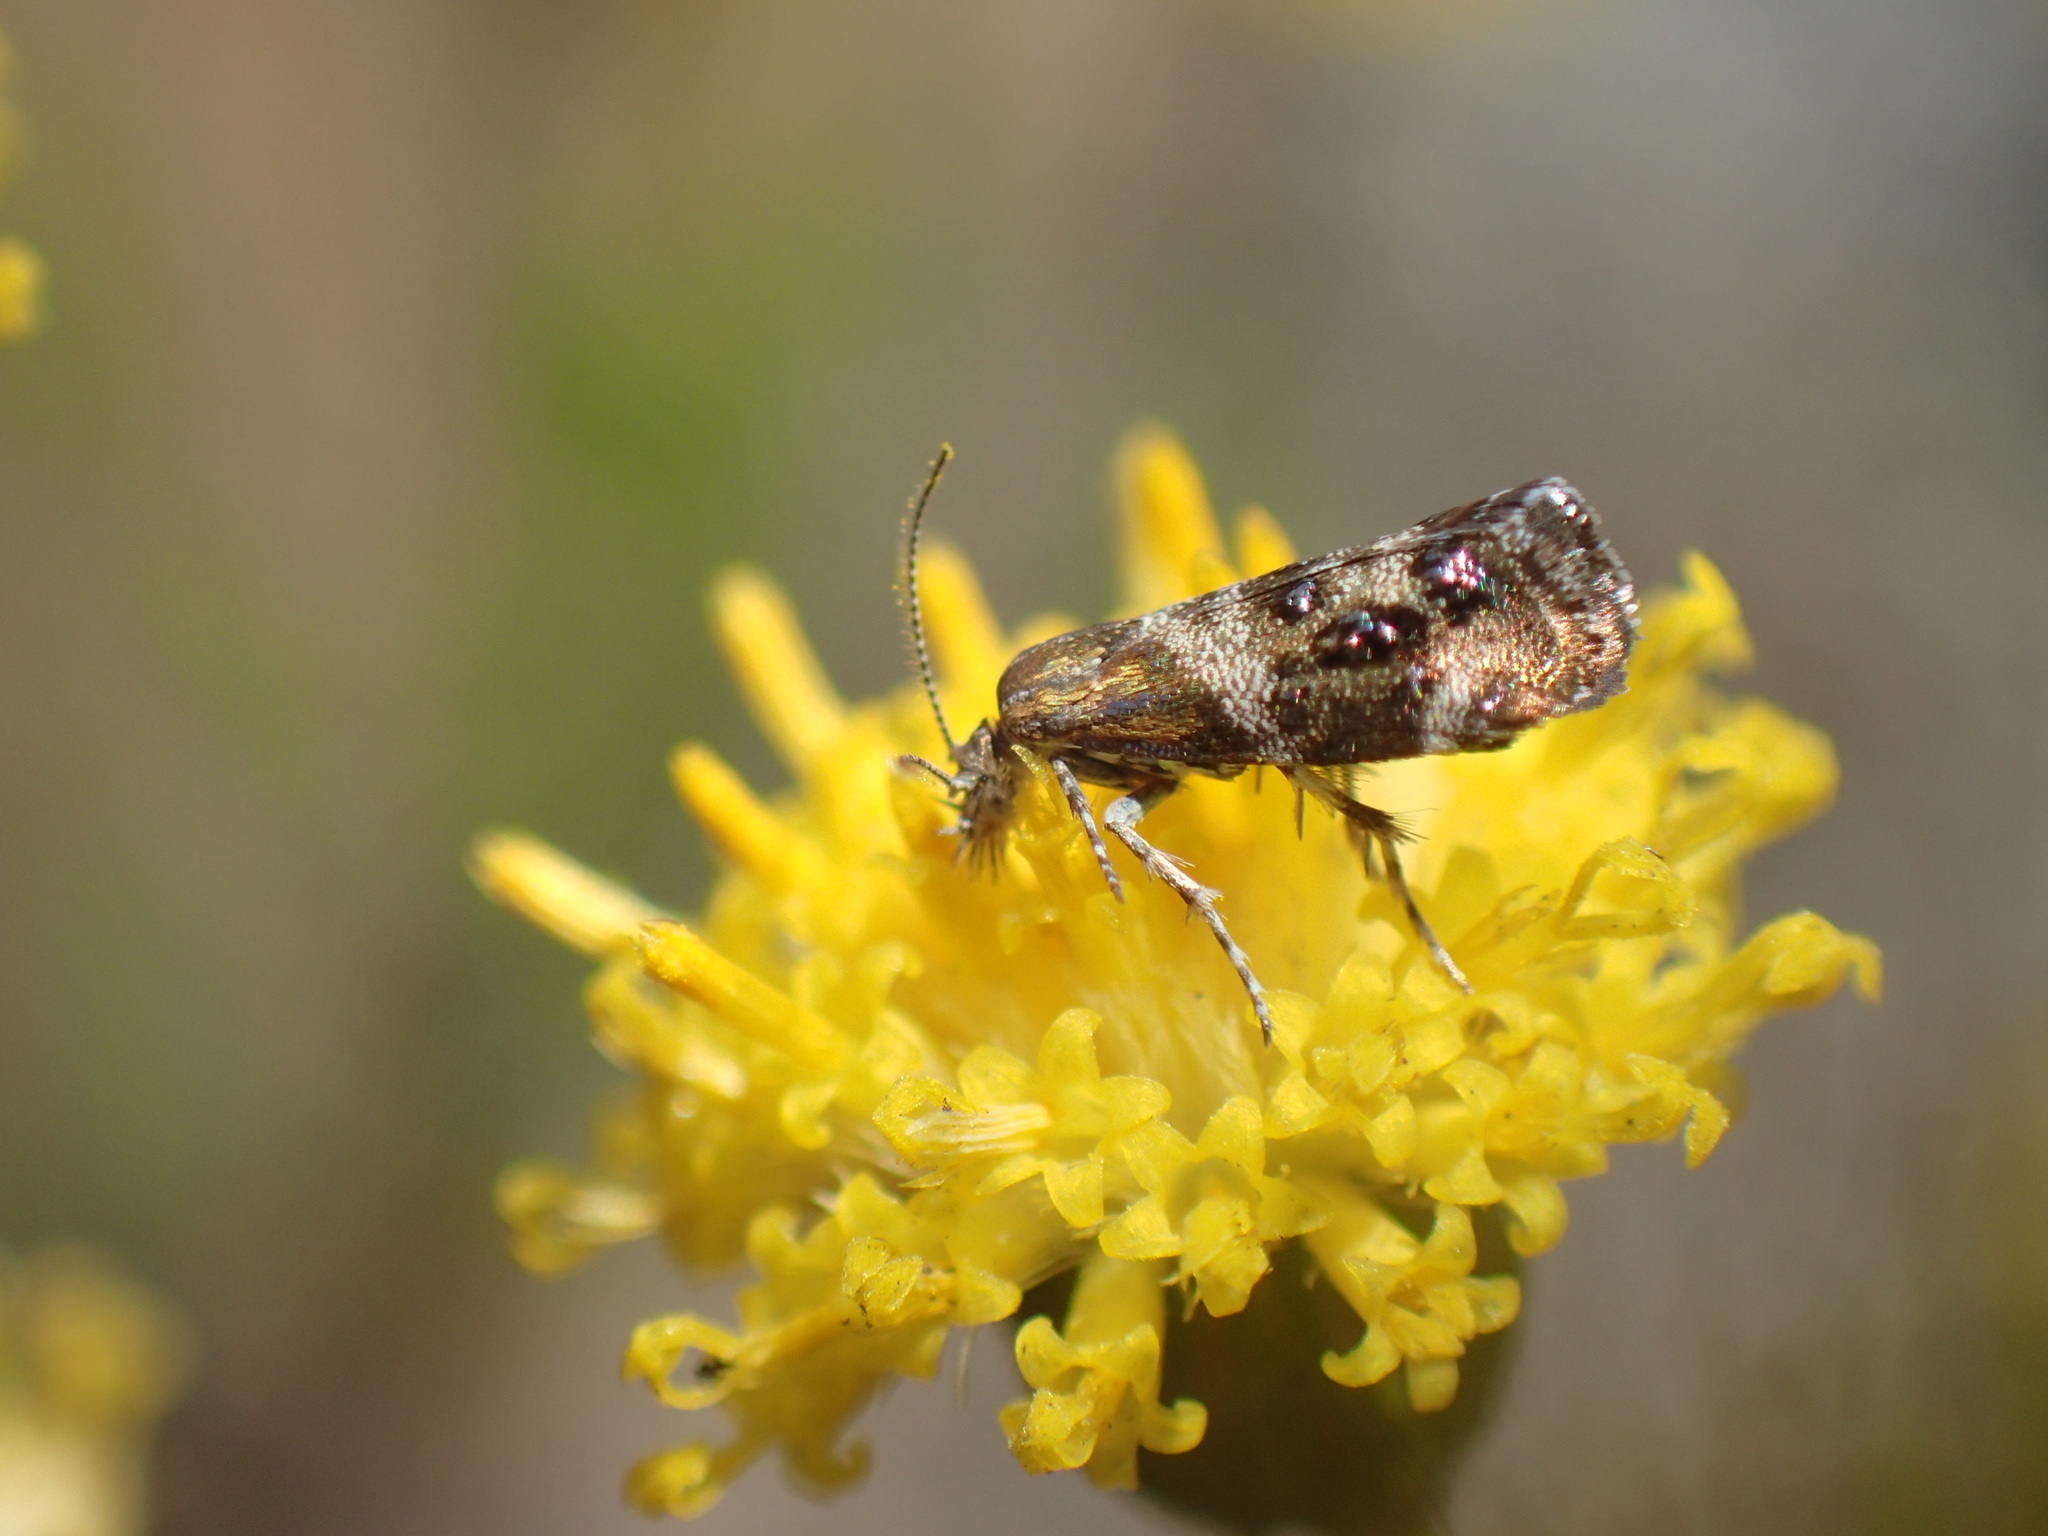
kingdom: Animalia
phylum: Arthropoda
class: Insecta
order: Lepidoptera
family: Choreutidae
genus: Tebenna
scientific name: Tebenna micalis
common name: Vagrant twitcher
